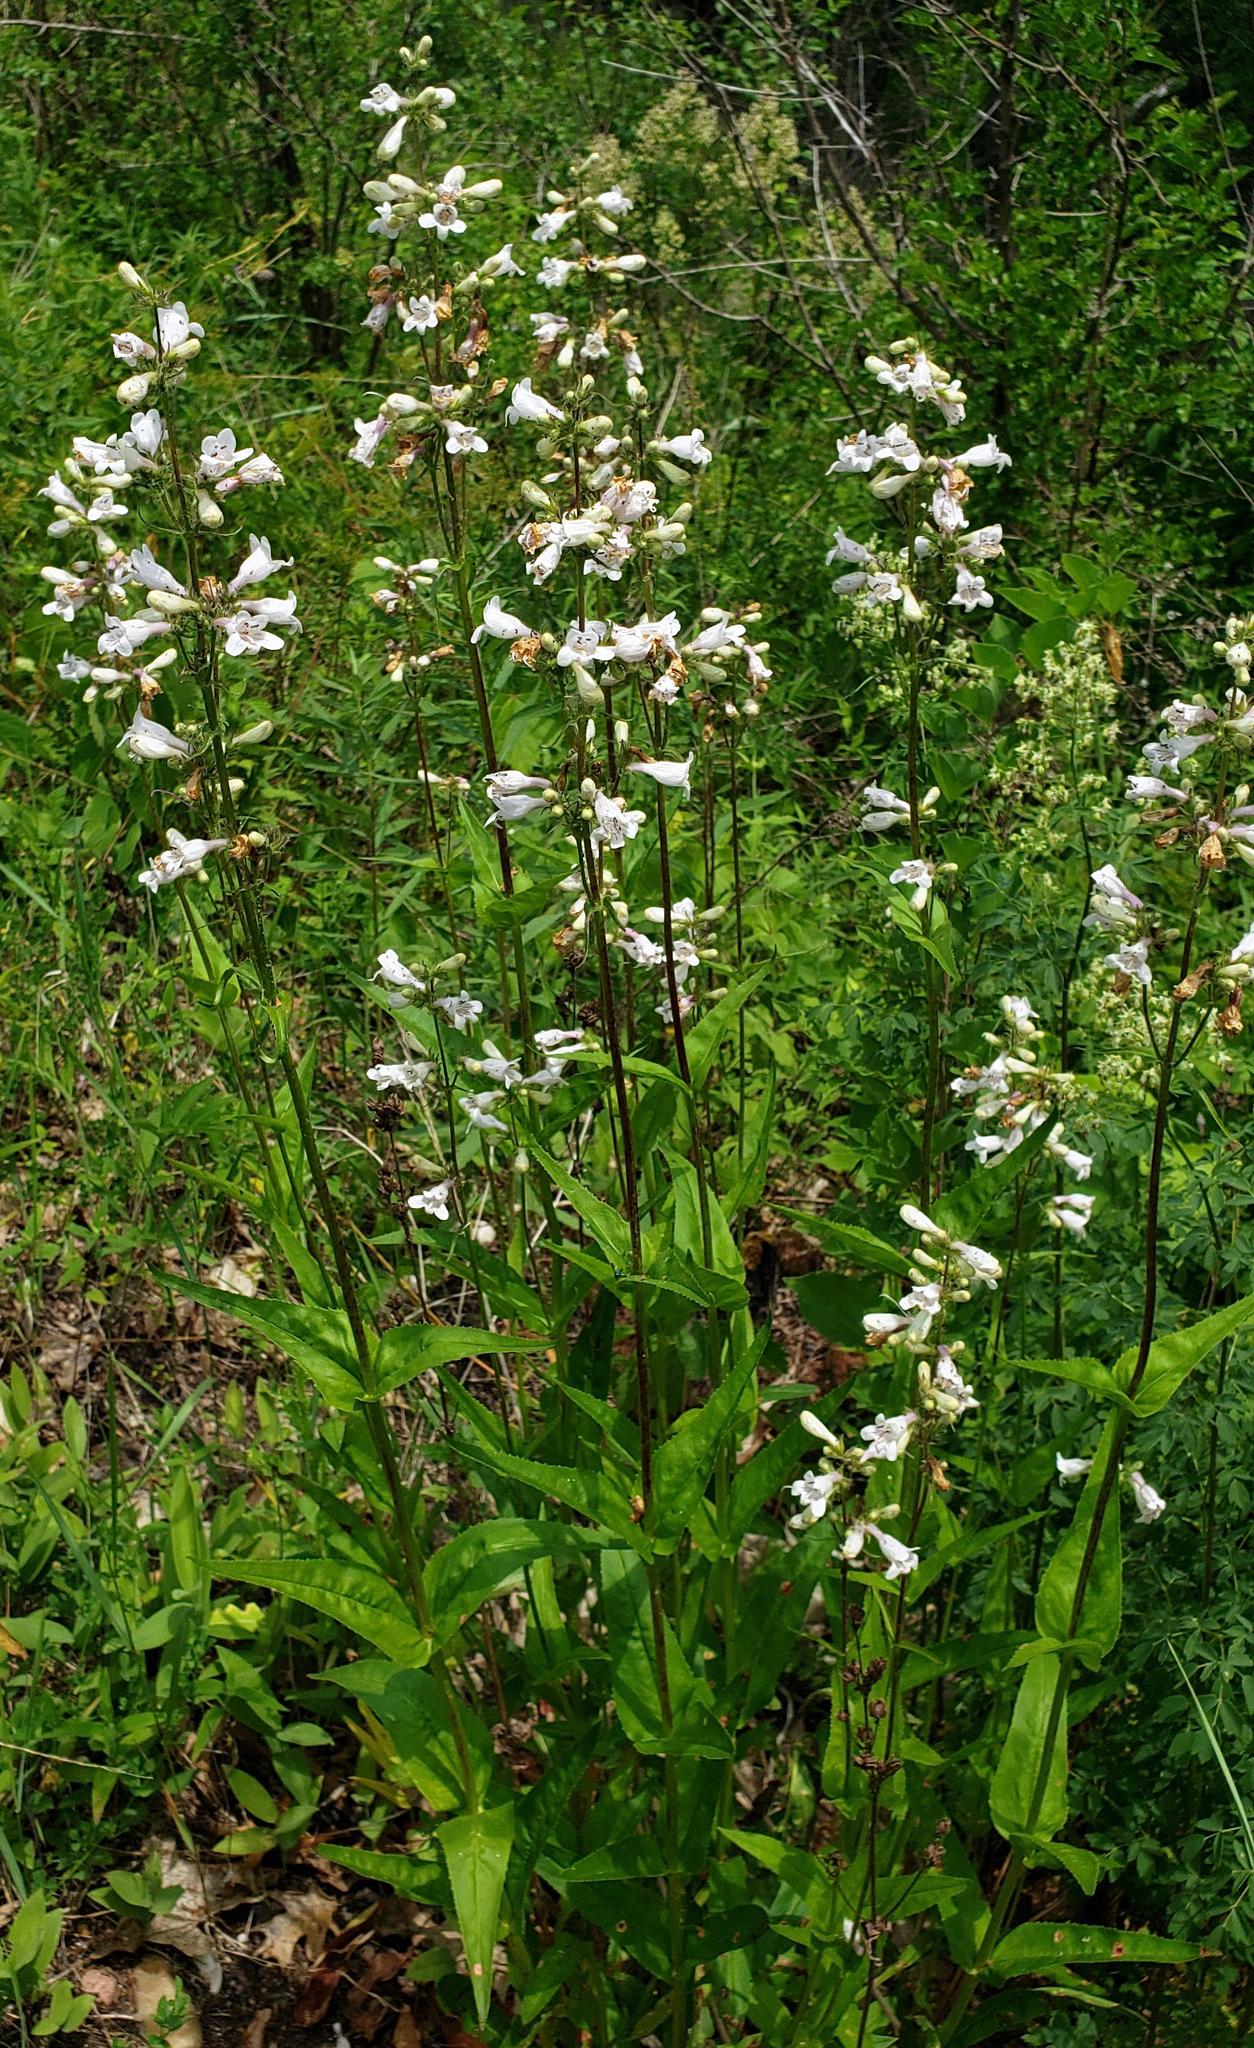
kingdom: Plantae
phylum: Tracheophyta
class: Magnoliopsida
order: Lamiales
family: Plantaginaceae
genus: Penstemon
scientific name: Penstemon digitalis
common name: Foxglove beardtongue
